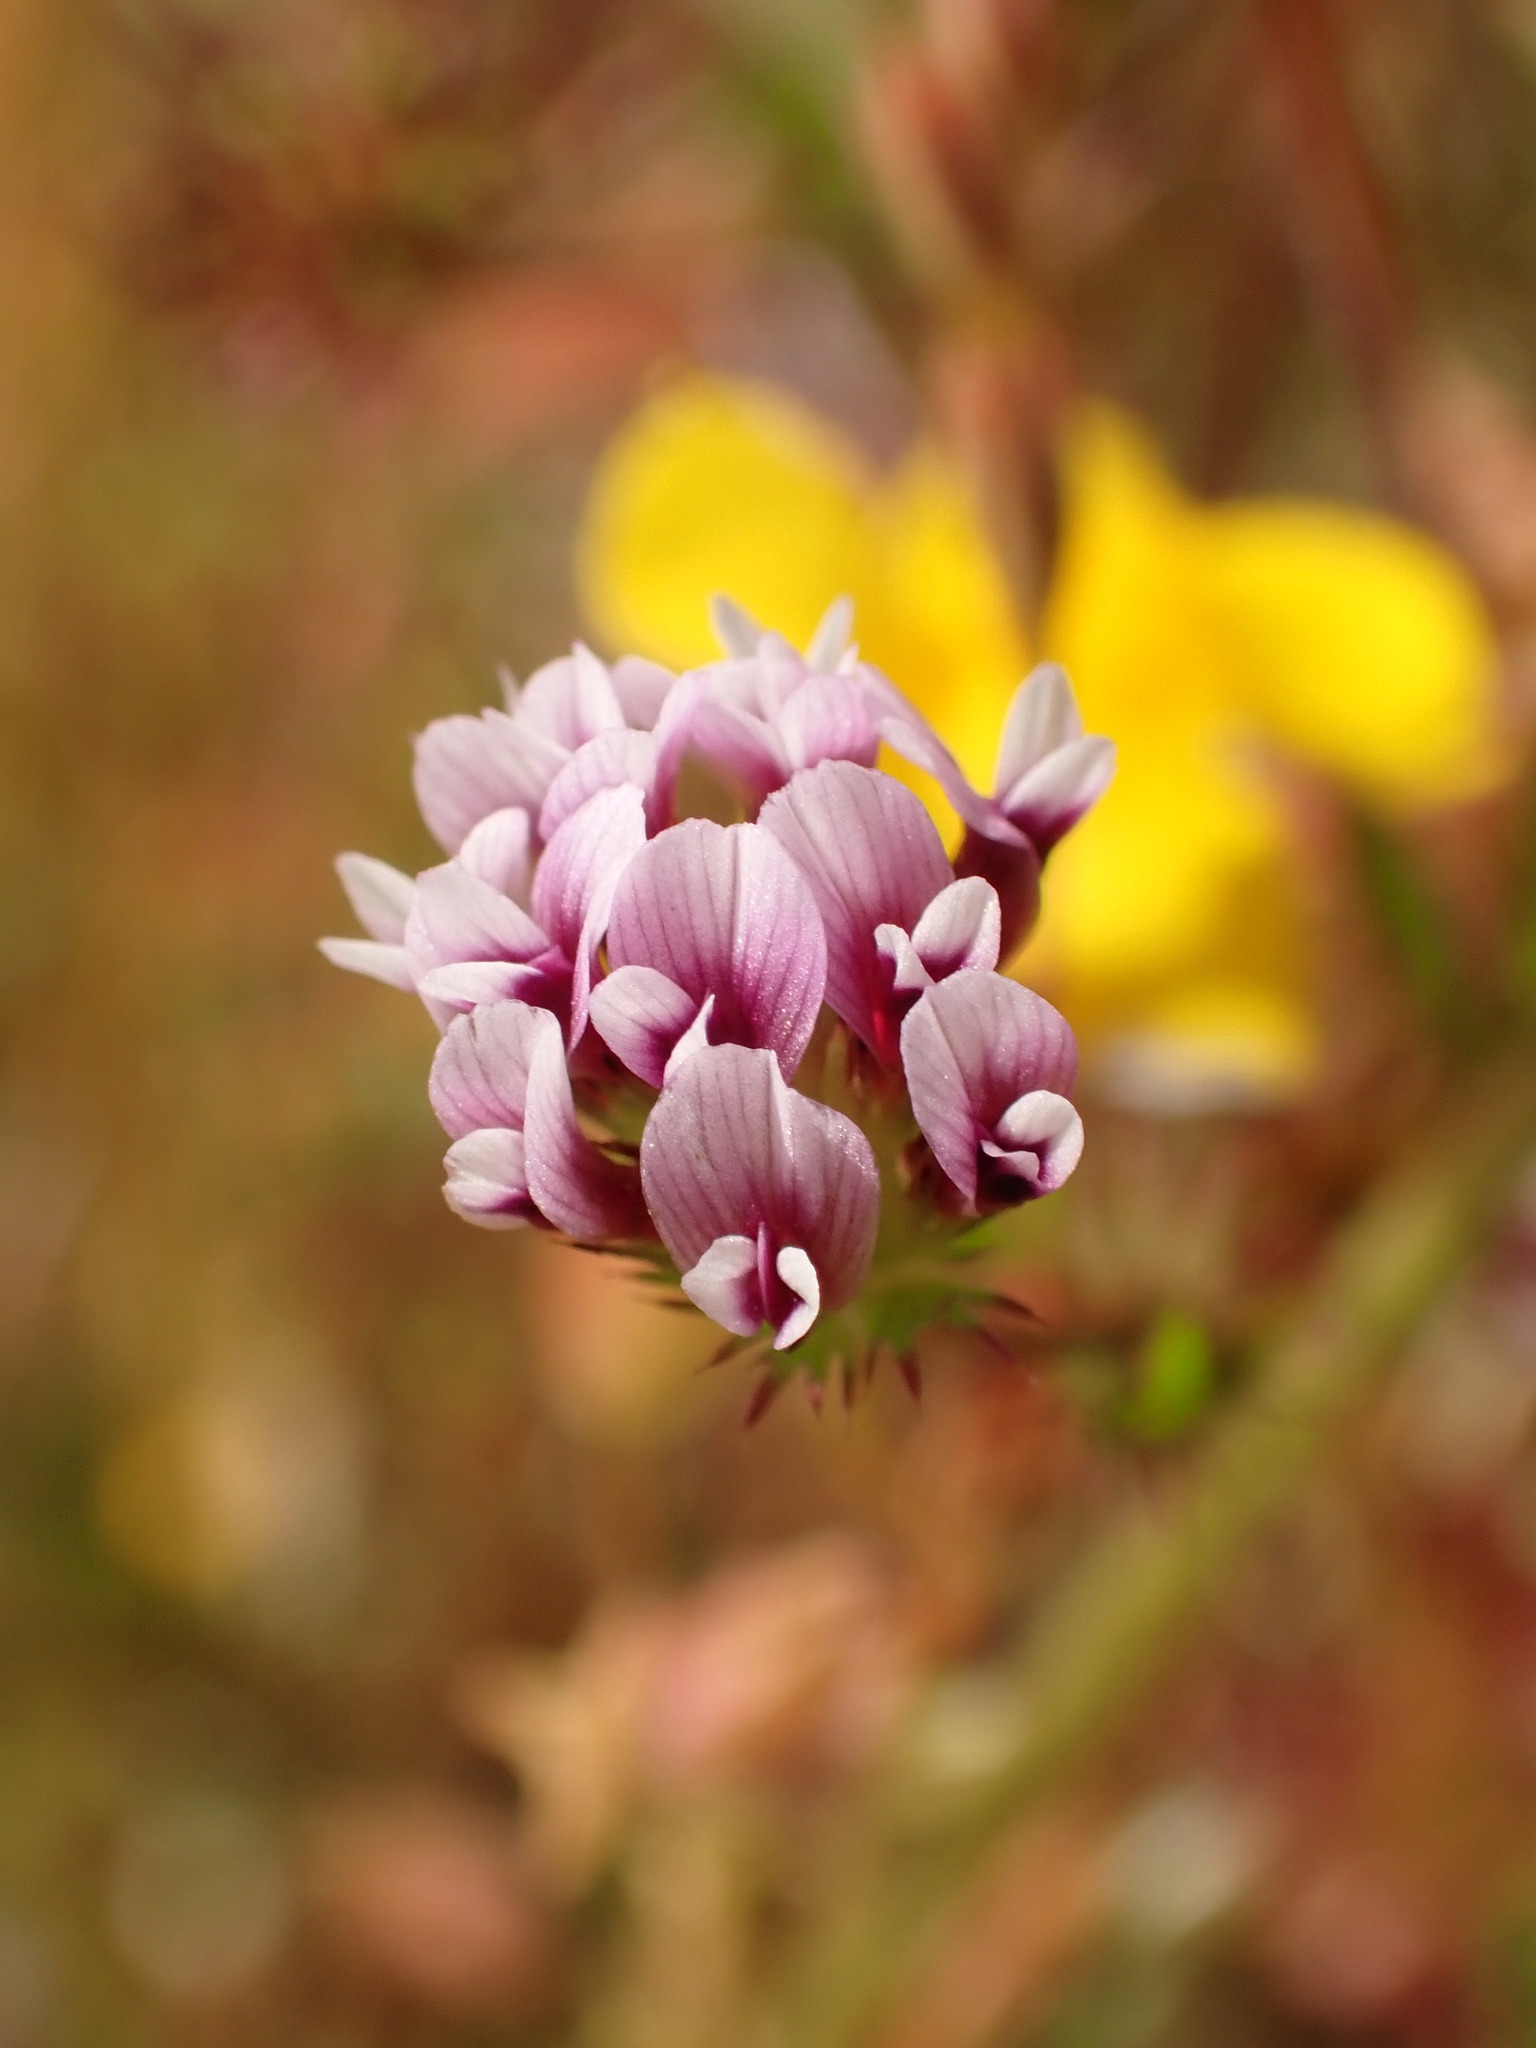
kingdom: Plantae
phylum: Tracheophyta
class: Magnoliopsida
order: Fabales
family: Fabaceae
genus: Trifolium
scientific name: Trifolium obtusiflorum
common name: Clammy clover
